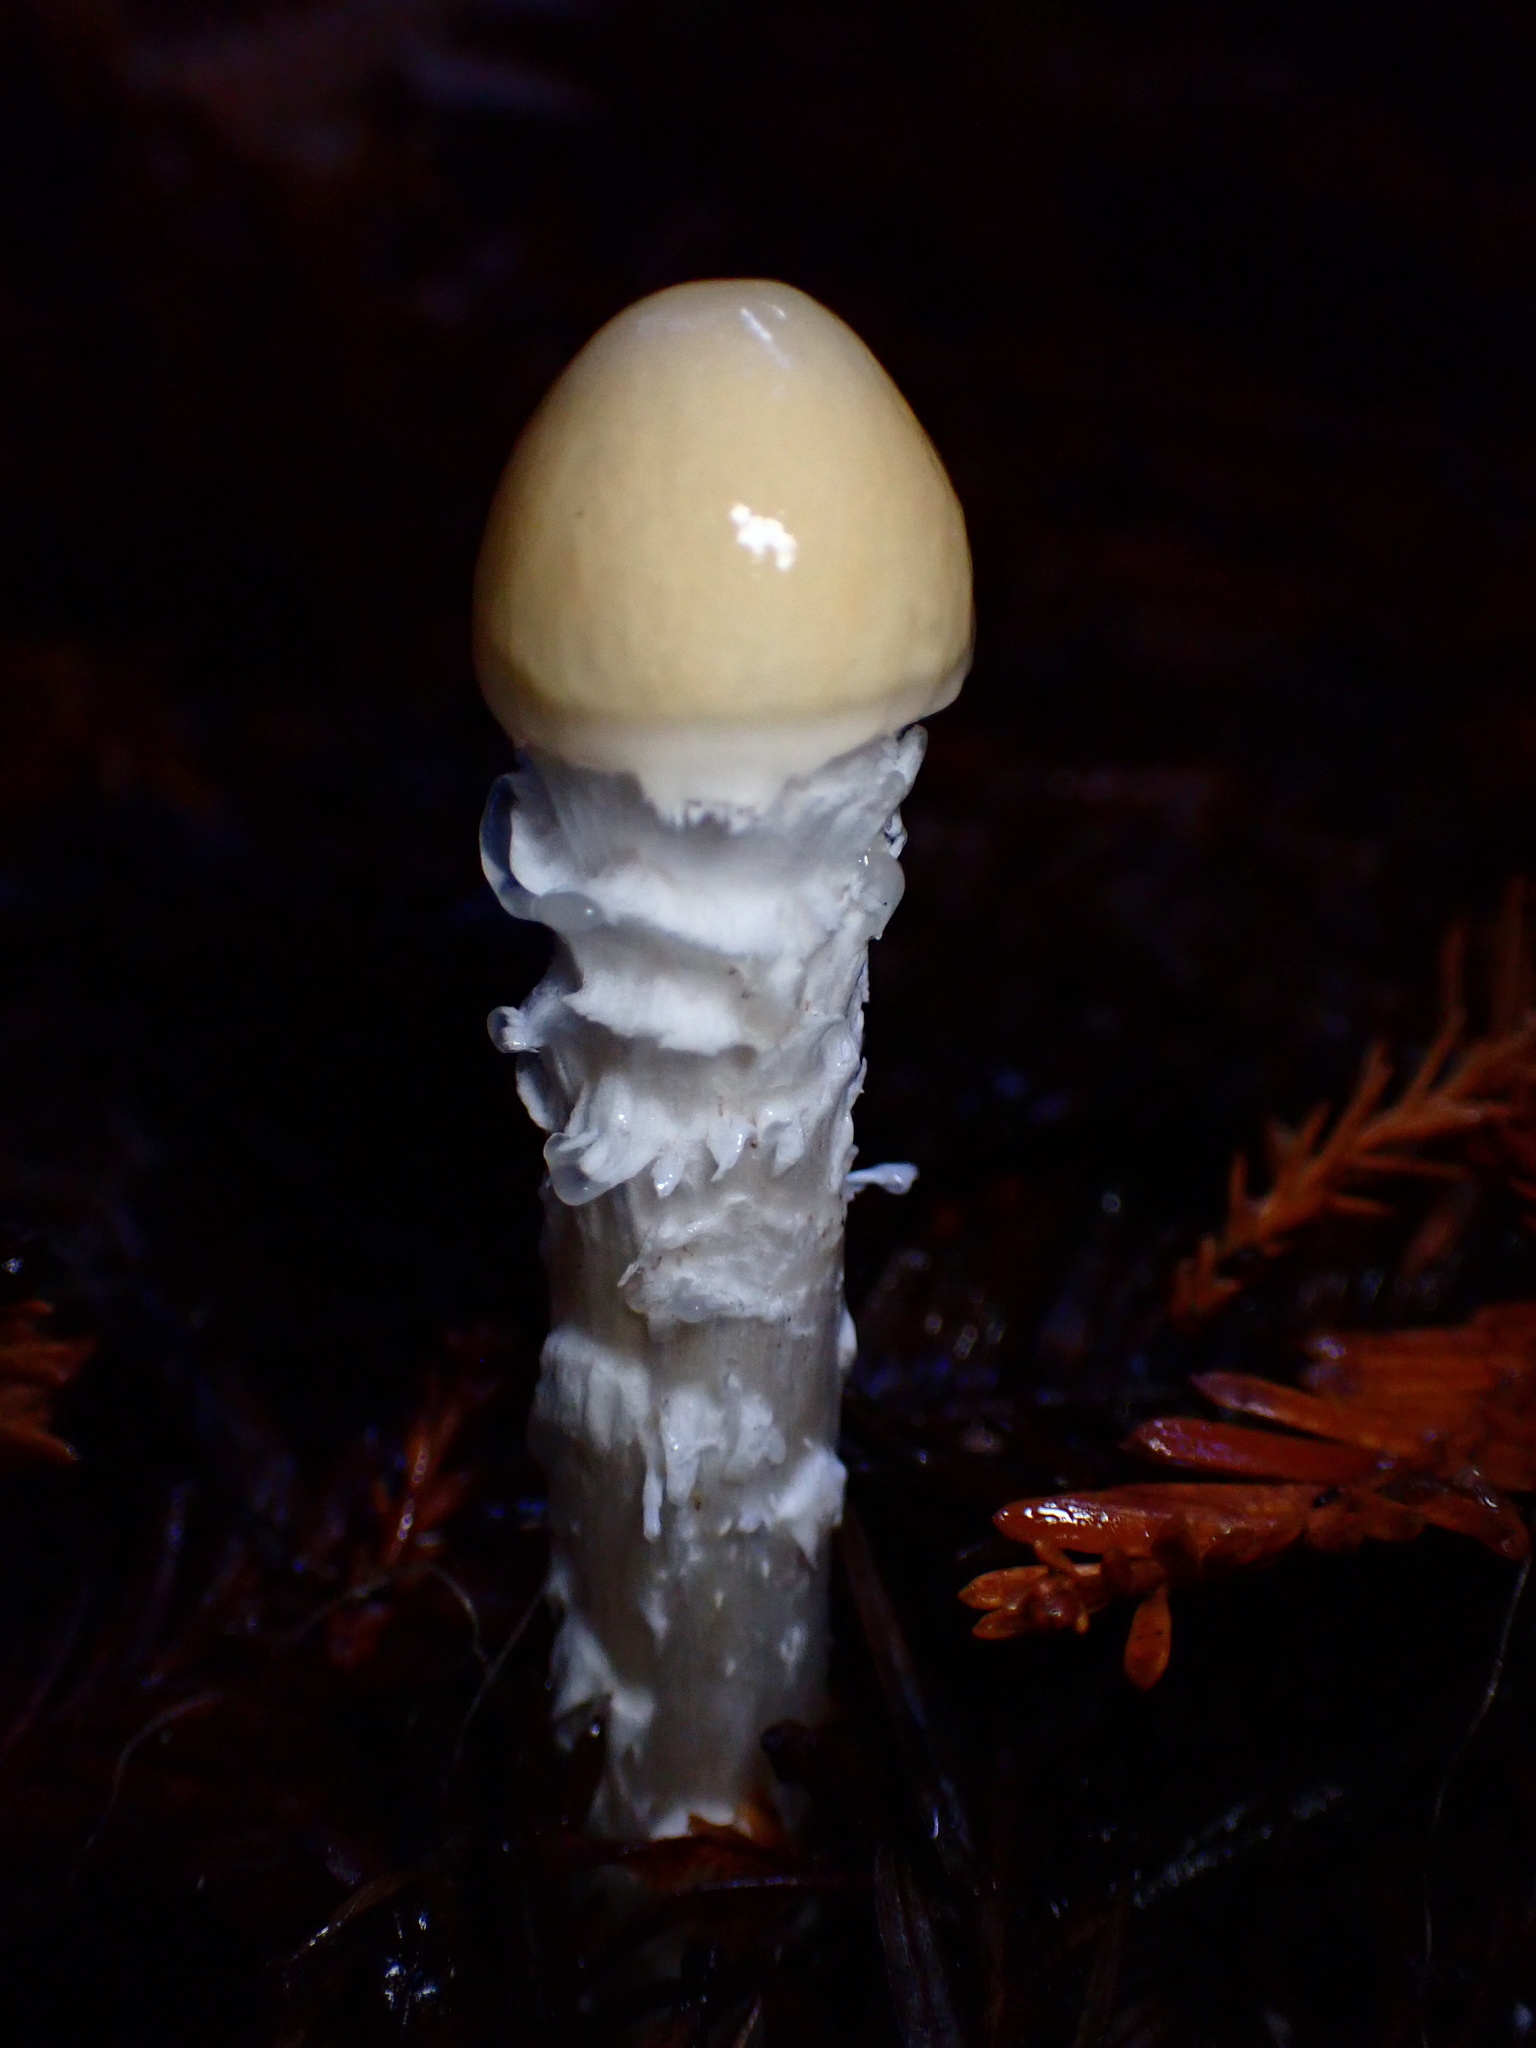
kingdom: Fungi
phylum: Basidiomycota
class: Agaricomycetes
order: Agaricales
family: Strophariaceae
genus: Stropharia
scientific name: Stropharia ambigua
